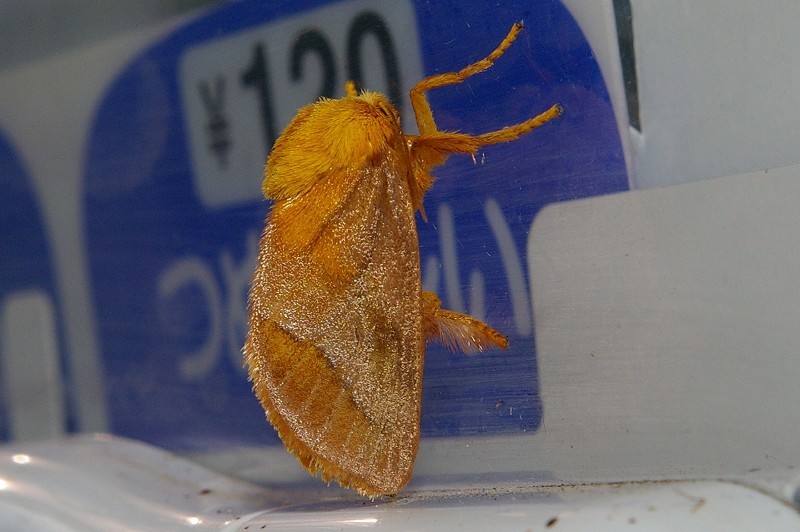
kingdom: Animalia
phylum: Arthropoda
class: Insecta
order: Lepidoptera
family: Limacodidae
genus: Narosoideus
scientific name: Narosoideus flavidorsalis
